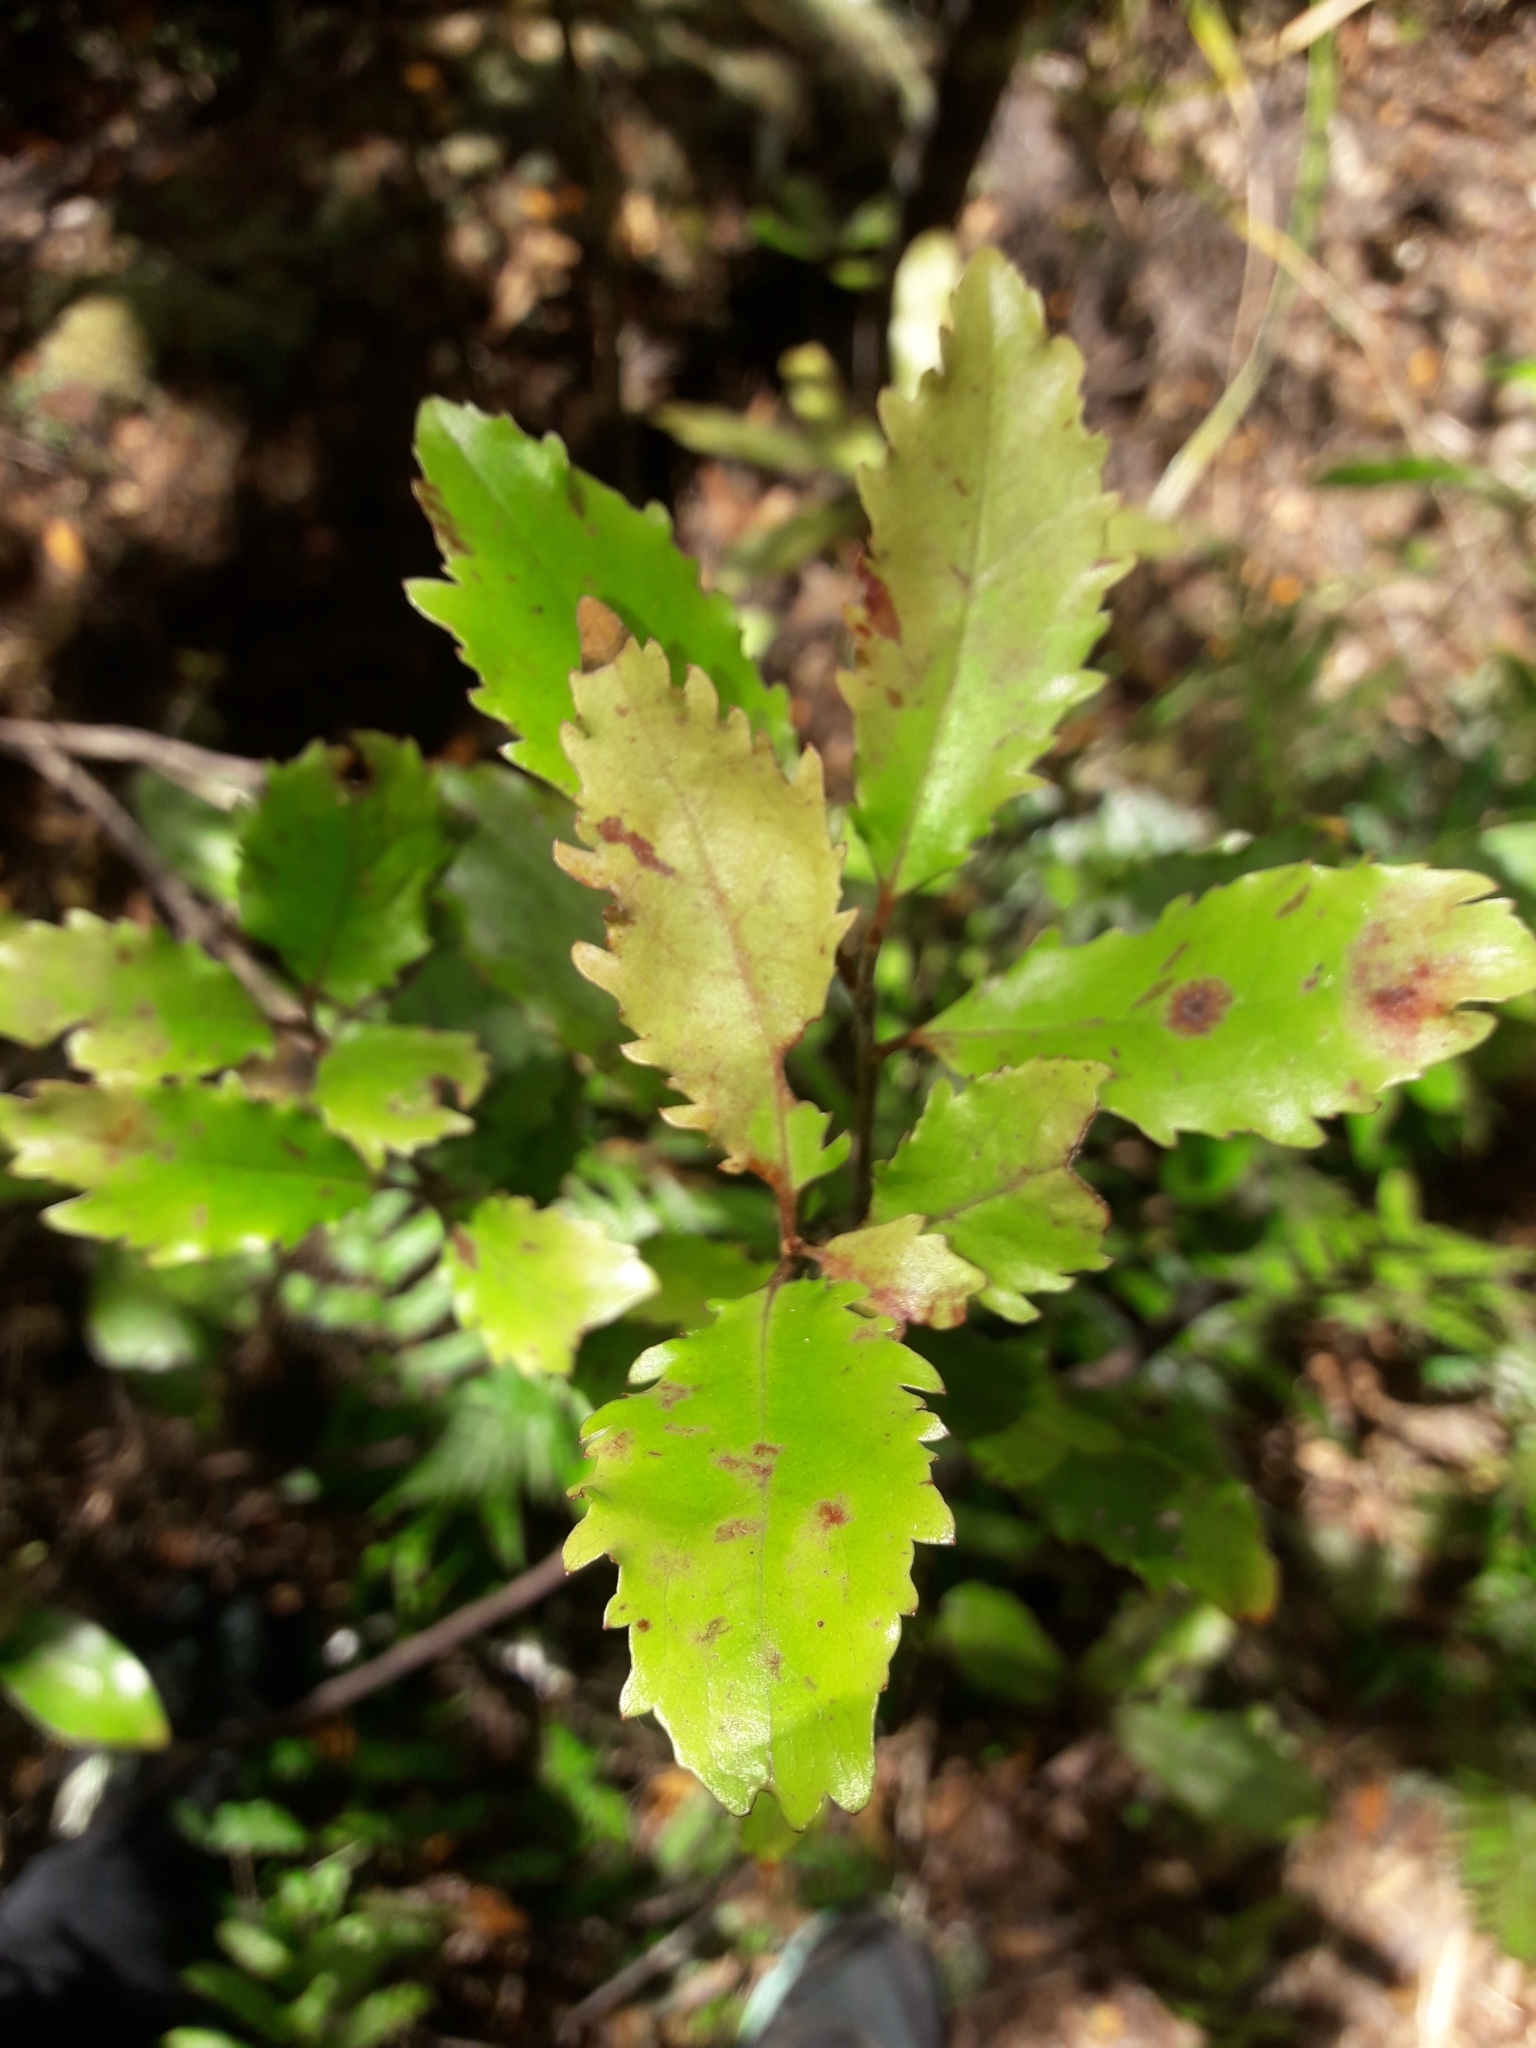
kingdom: Plantae
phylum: Tracheophyta
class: Magnoliopsida
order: Asterales
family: Alseuosmiaceae
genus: Alseuosmia
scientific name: Alseuosmia banksii
